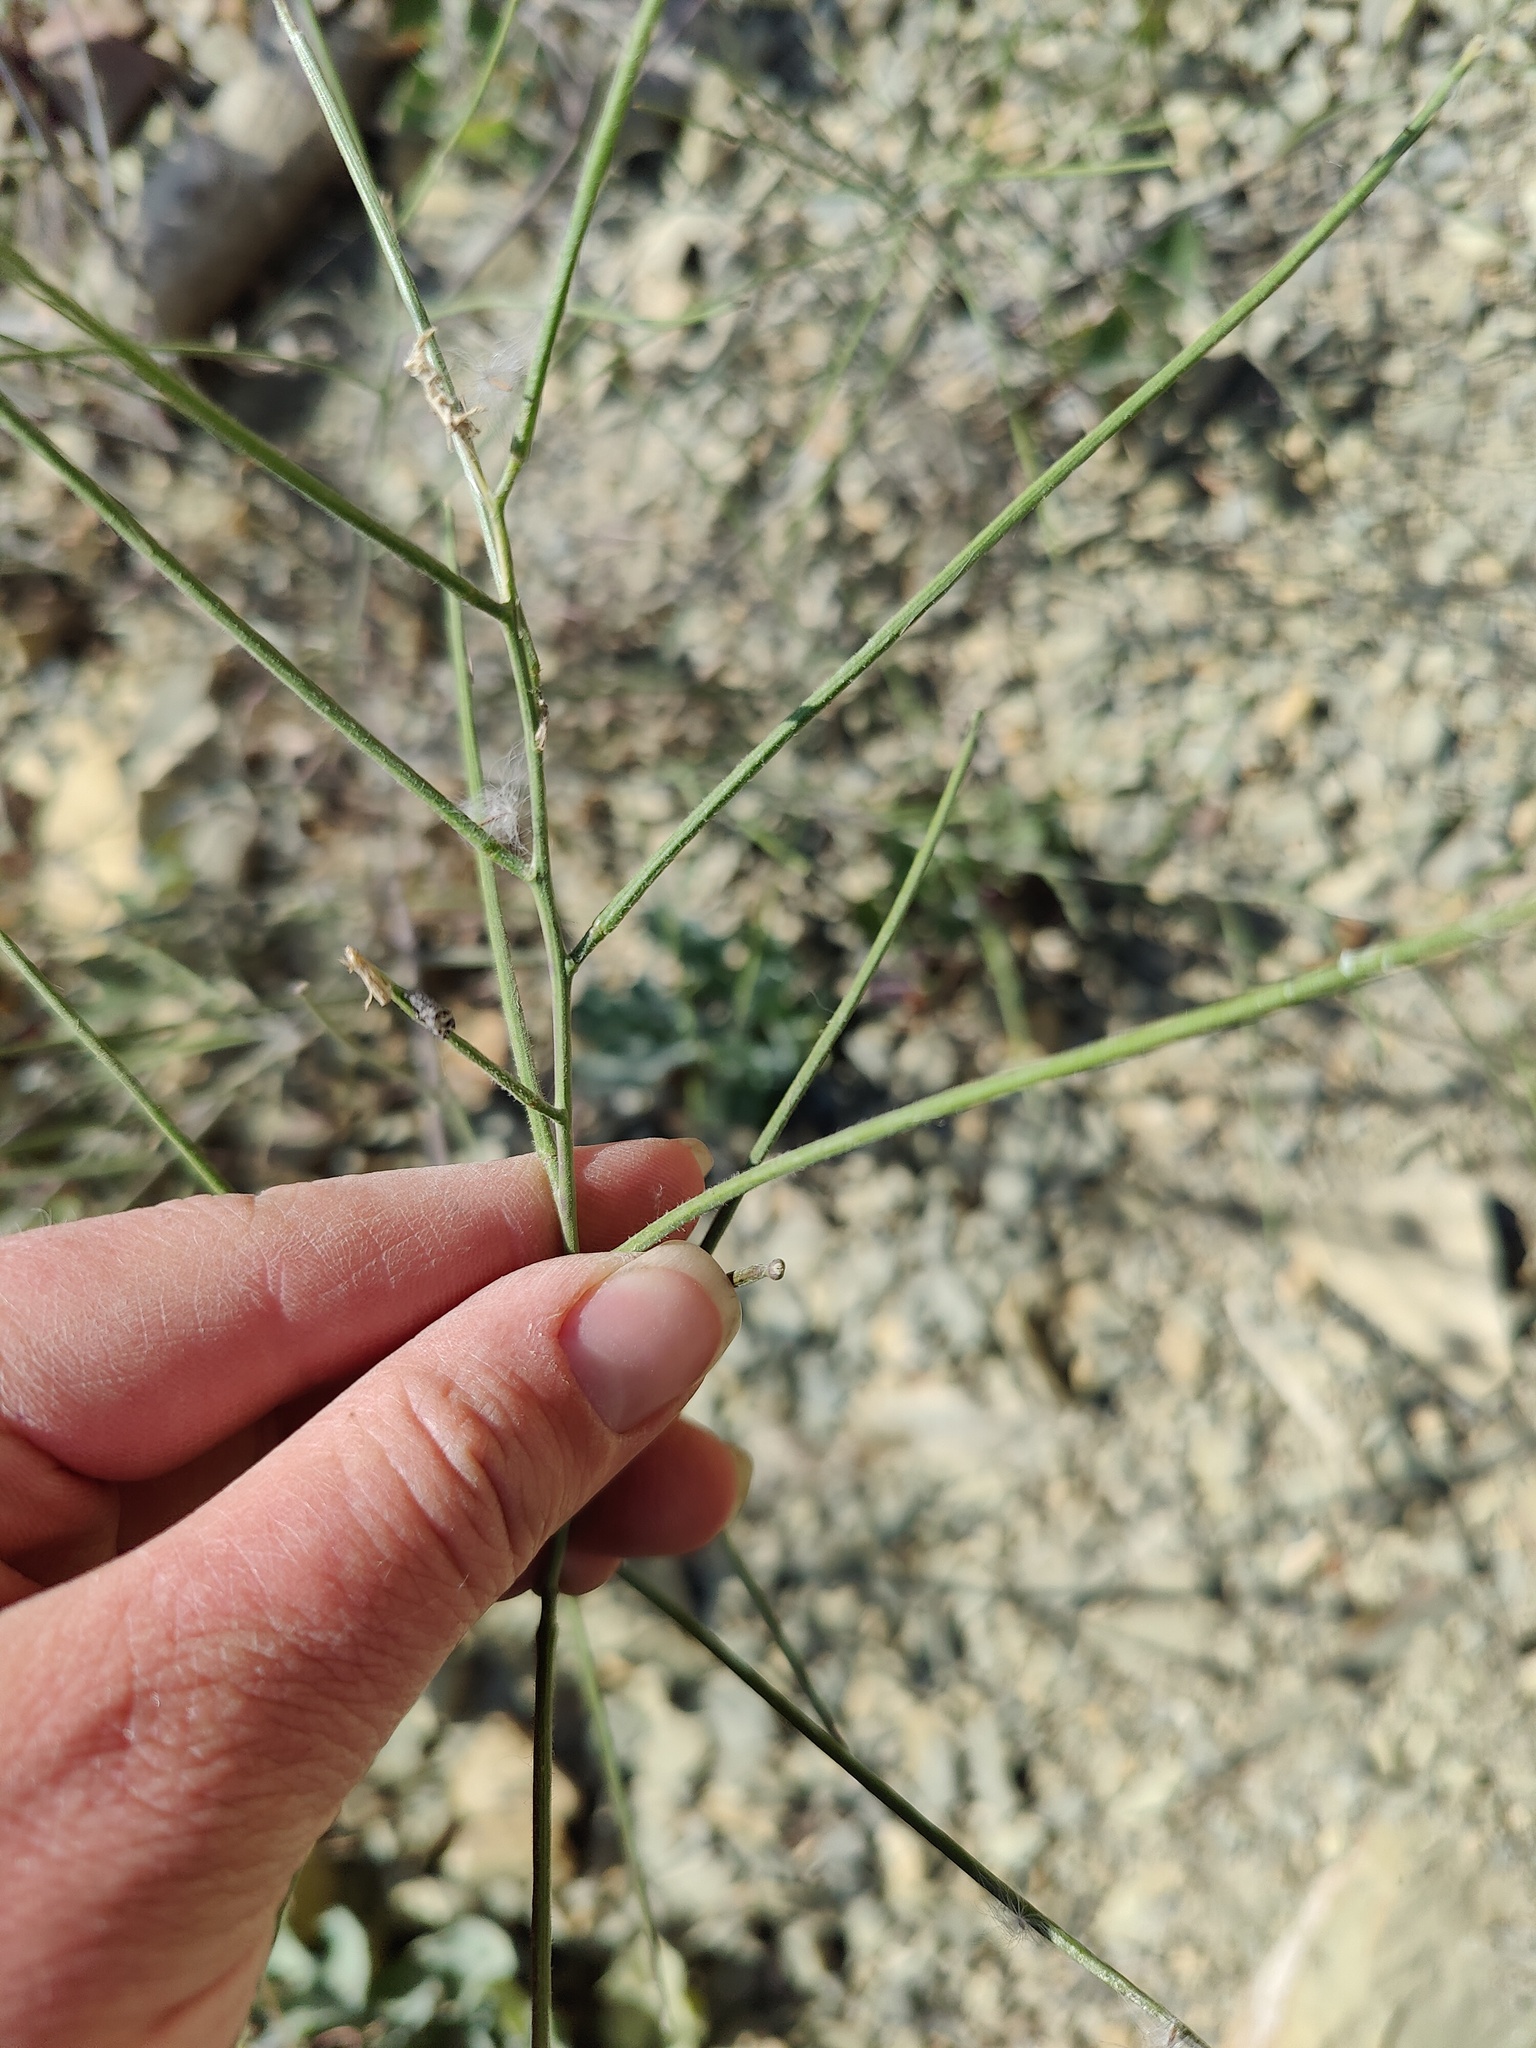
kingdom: Plantae
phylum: Tracheophyta
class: Magnoliopsida
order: Brassicales
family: Brassicaceae
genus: Sisymbrium
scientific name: Sisymbrium orientale
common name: Eastern rocket
